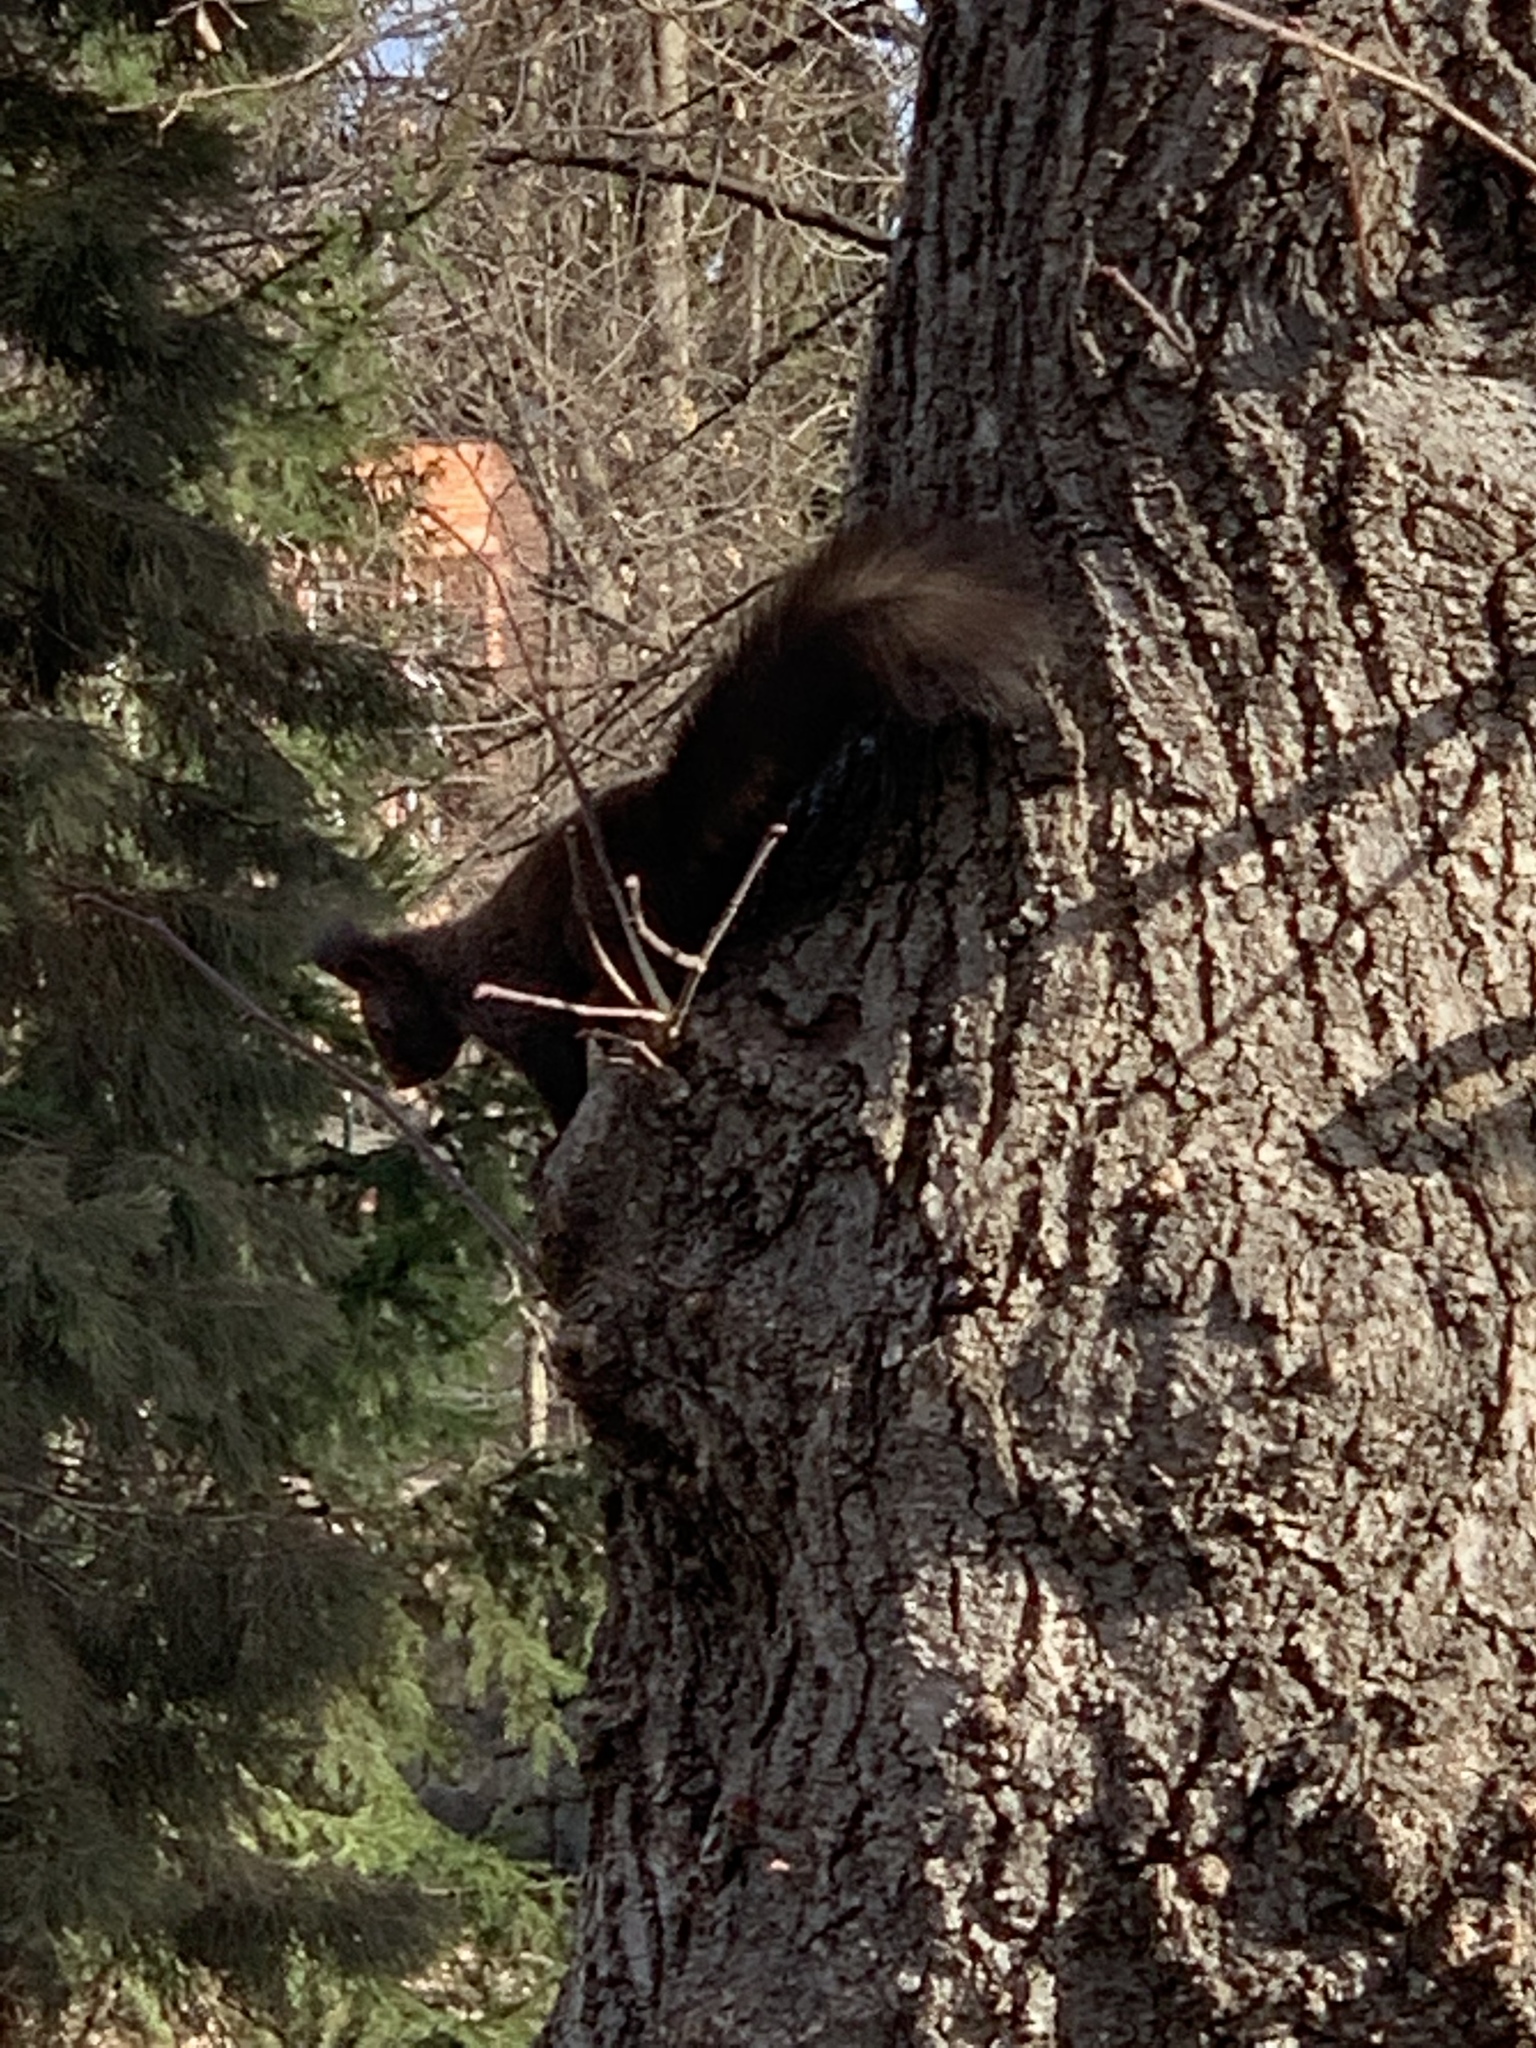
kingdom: Animalia
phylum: Chordata
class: Mammalia
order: Rodentia
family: Sciuridae
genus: Sciurus
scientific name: Sciurus vulgaris
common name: Eurasian red squirrel
